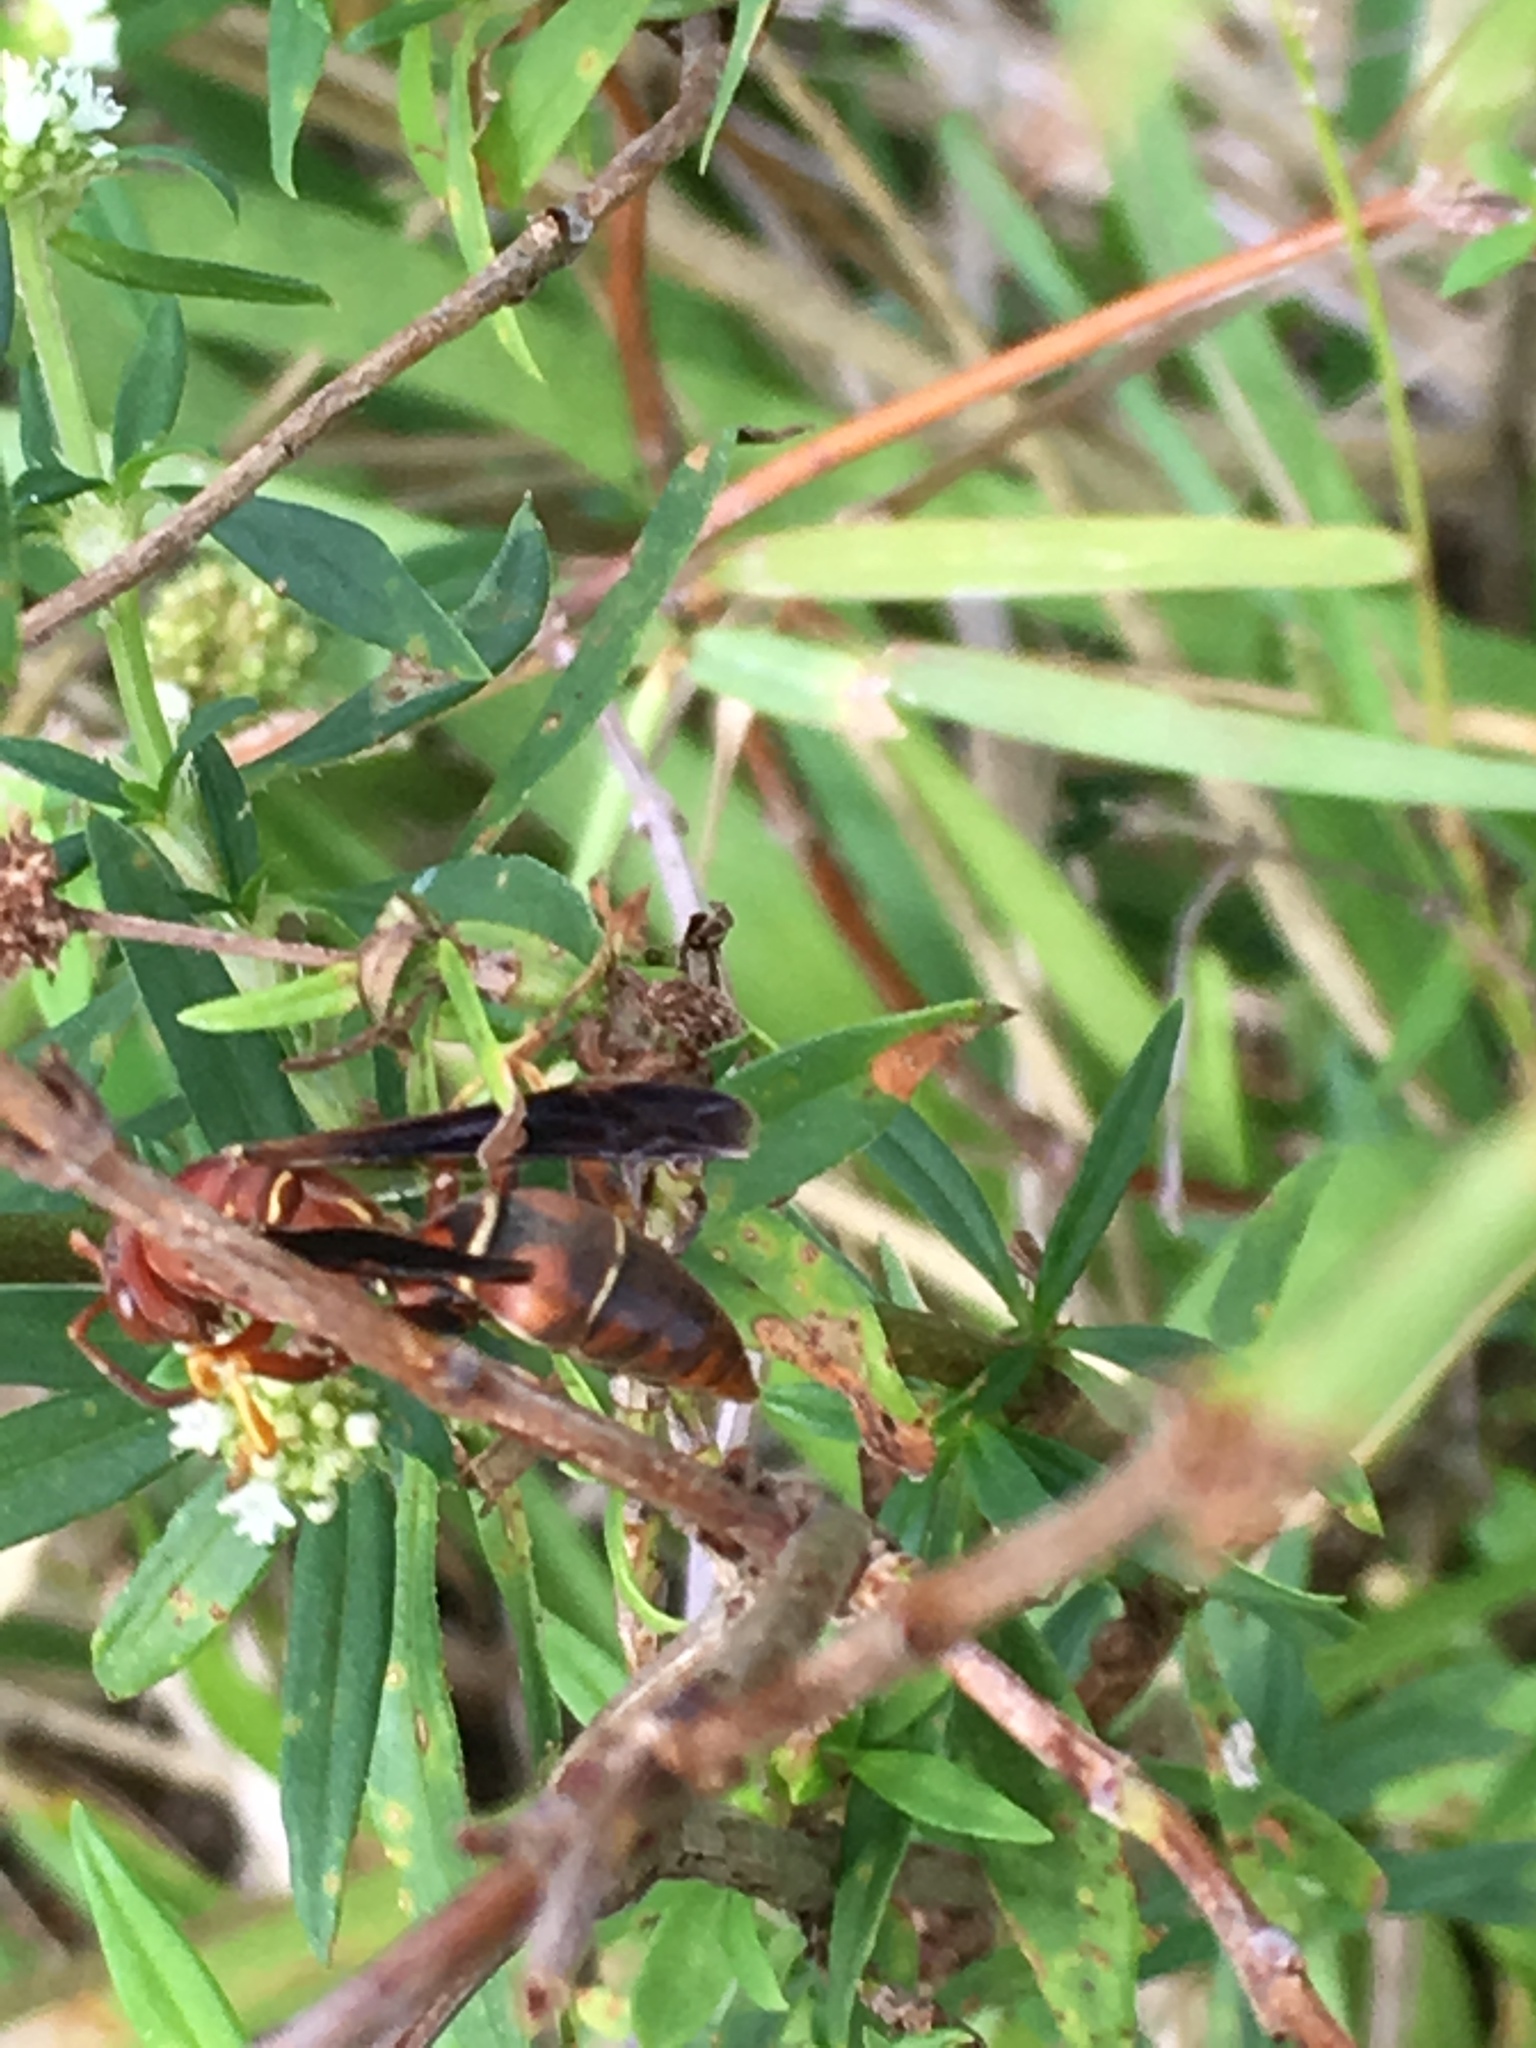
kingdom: Animalia
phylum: Arthropoda
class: Insecta
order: Hymenoptera
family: Eumenidae
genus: Polistes
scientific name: Polistes fuscatus
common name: Dark paper wasp
